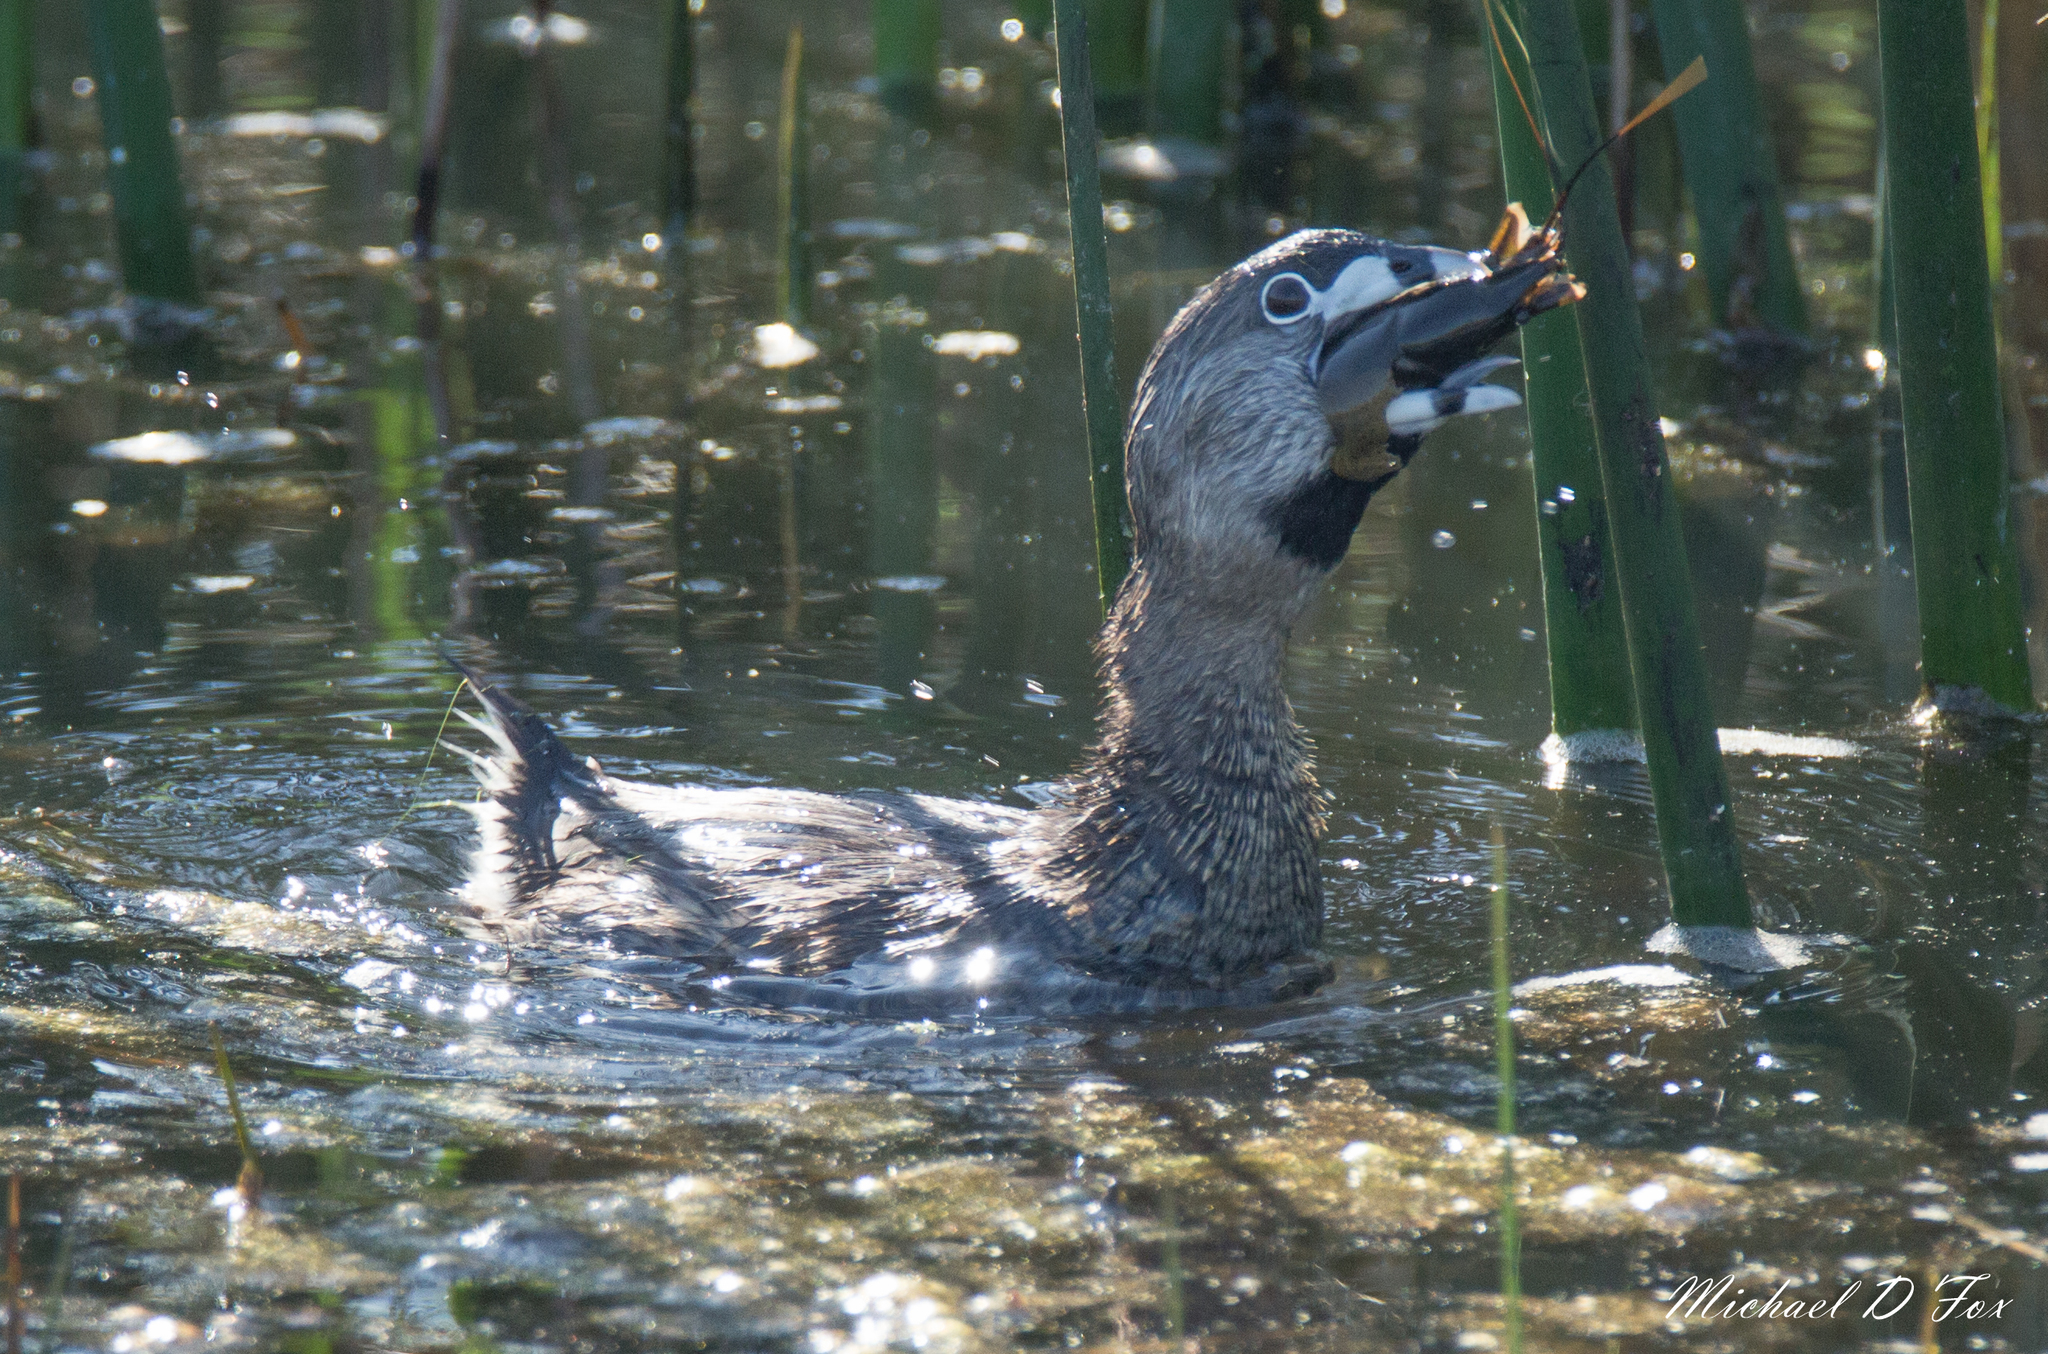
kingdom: Animalia
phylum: Chordata
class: Aves
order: Podicipediformes
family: Podicipedidae
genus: Podilymbus
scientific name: Podilymbus podiceps
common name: Pied-billed grebe
